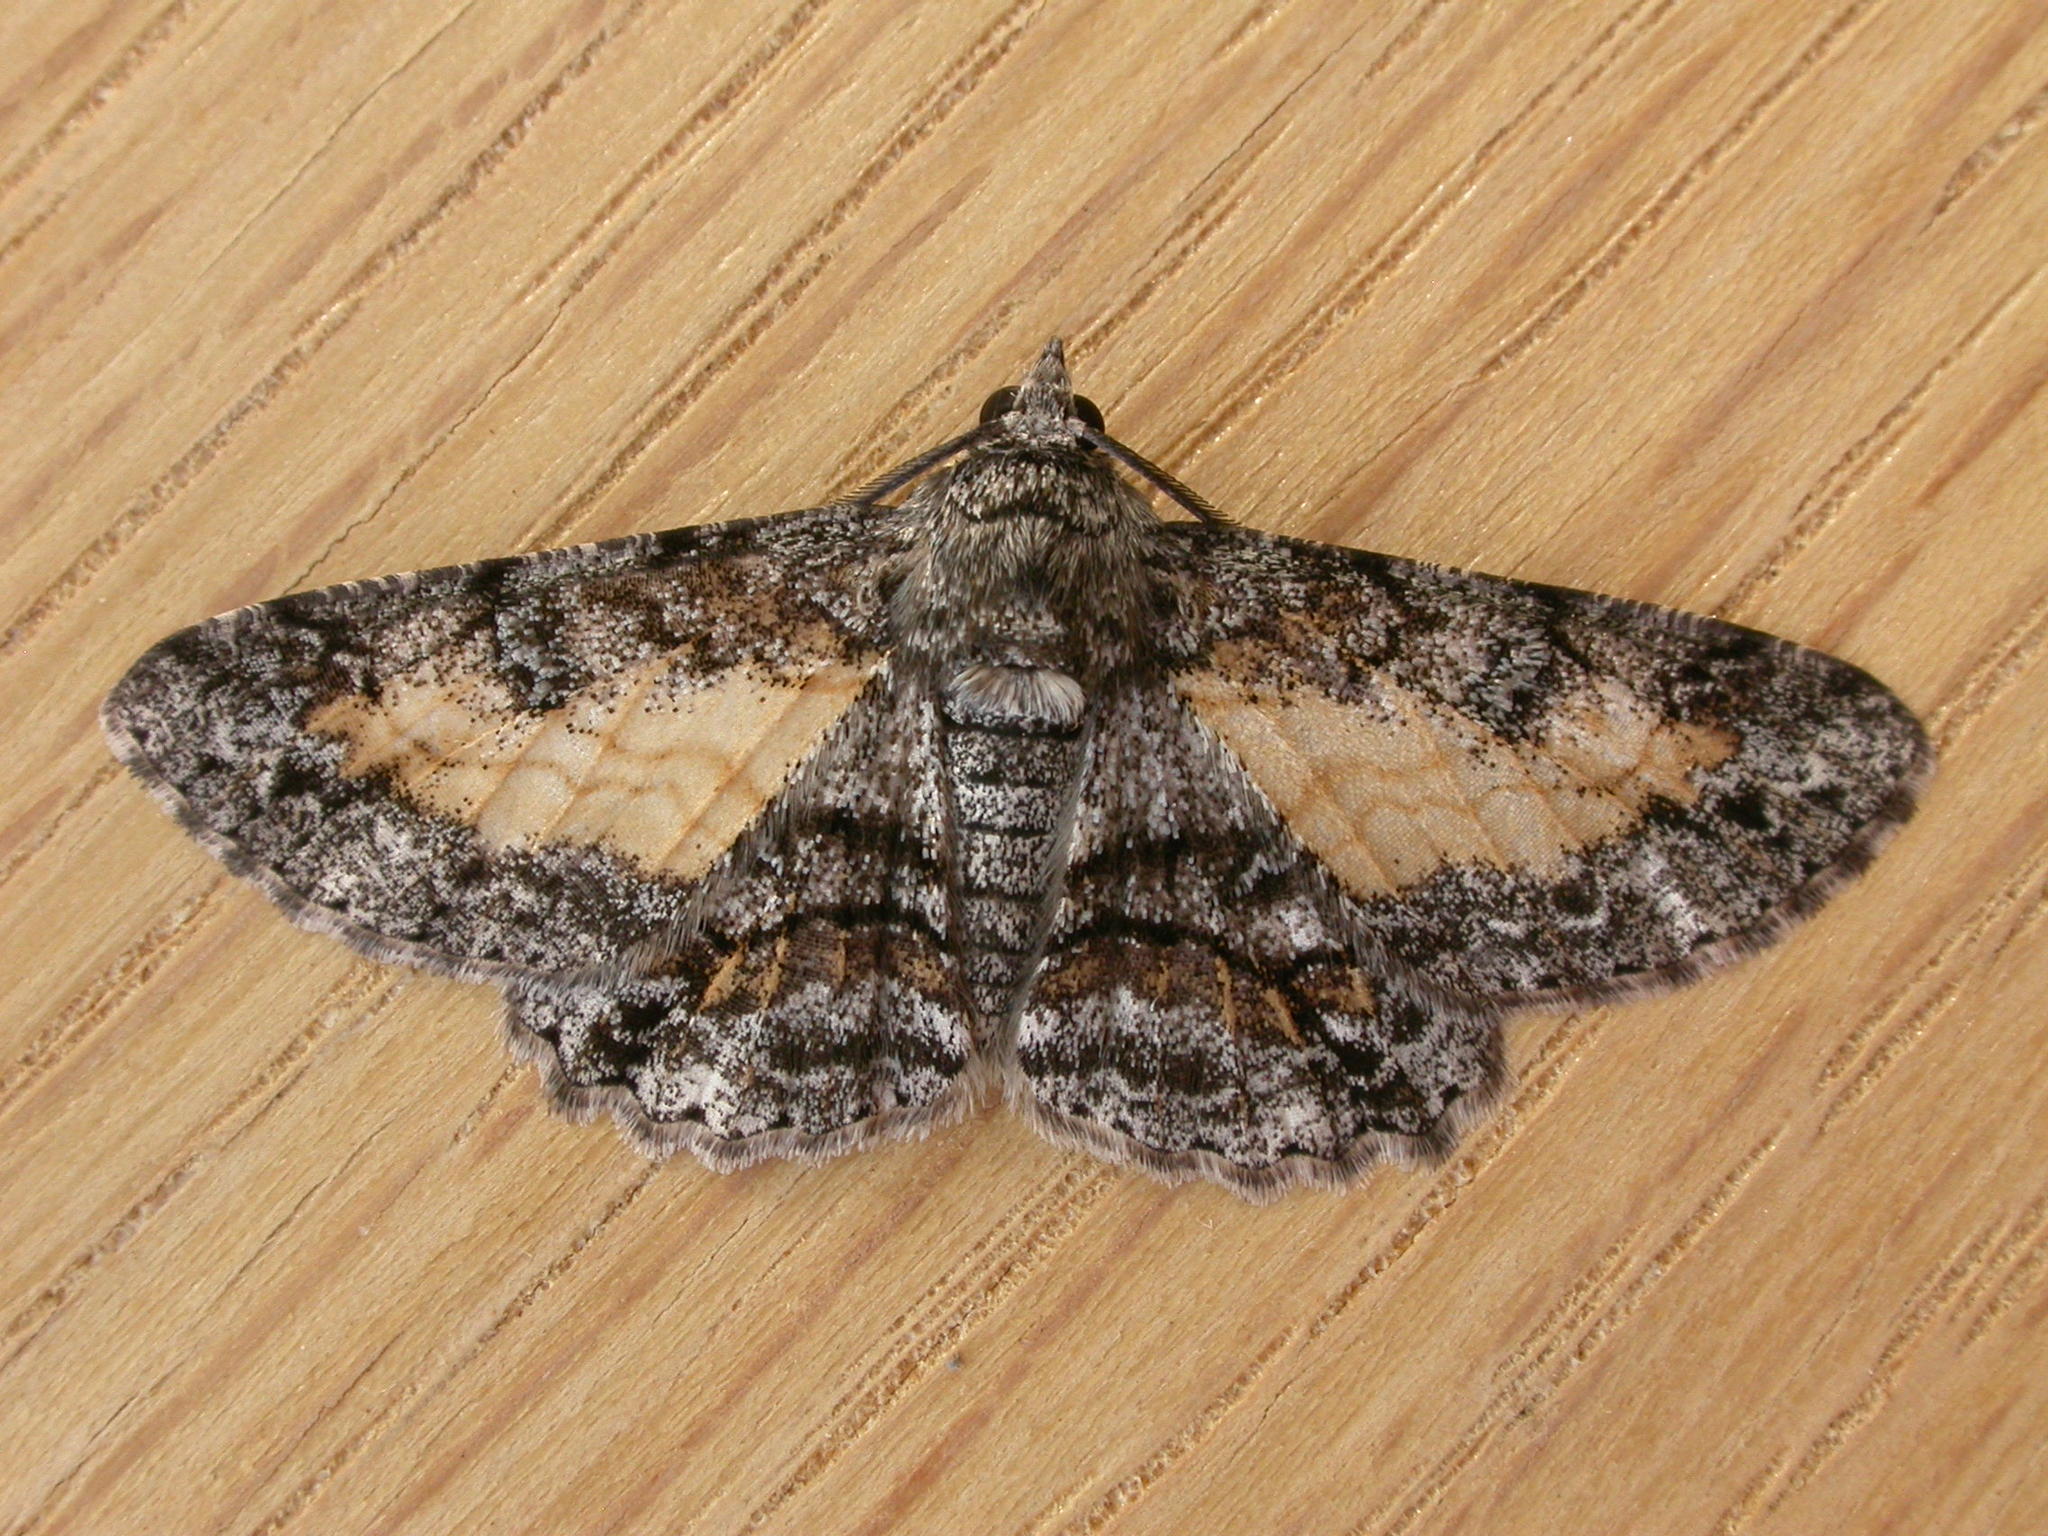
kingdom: Animalia
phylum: Arthropoda
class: Insecta
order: Lepidoptera
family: Geometridae
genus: Cleora
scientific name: Cleora injectaria
